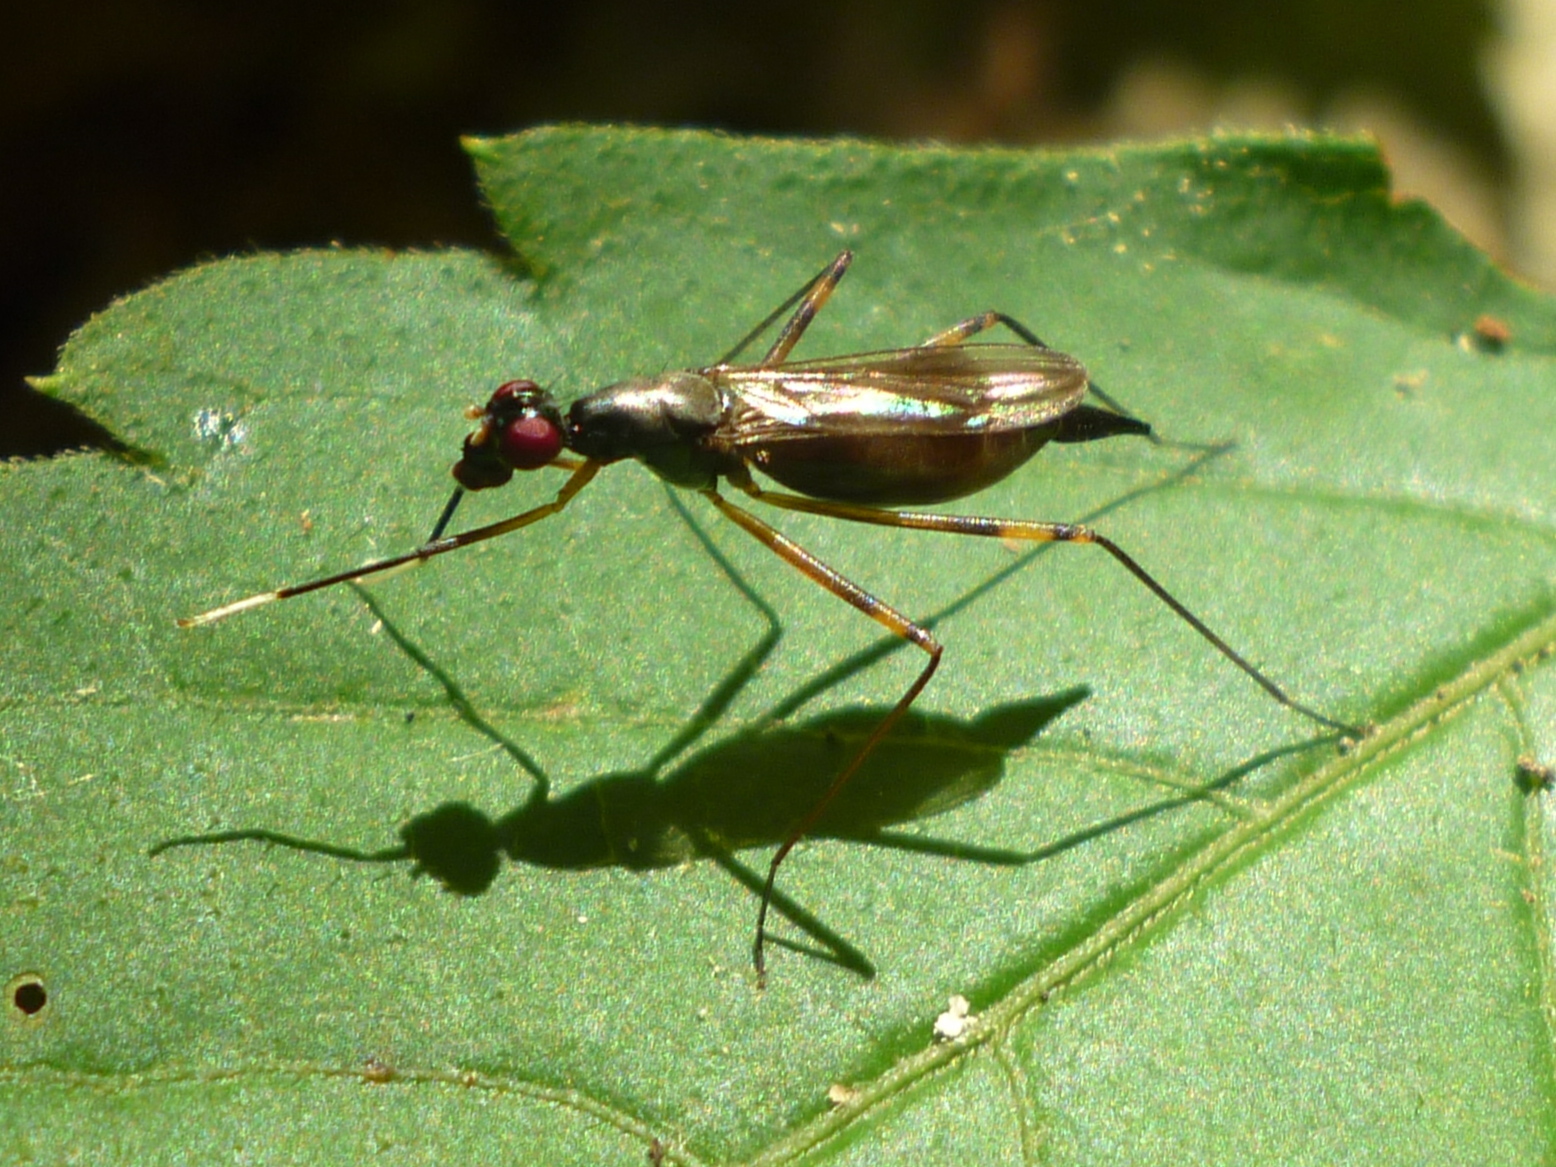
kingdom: Animalia
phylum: Arthropoda
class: Insecta
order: Diptera
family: Micropezidae
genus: Rainieria
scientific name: Rainieria antennaepes
